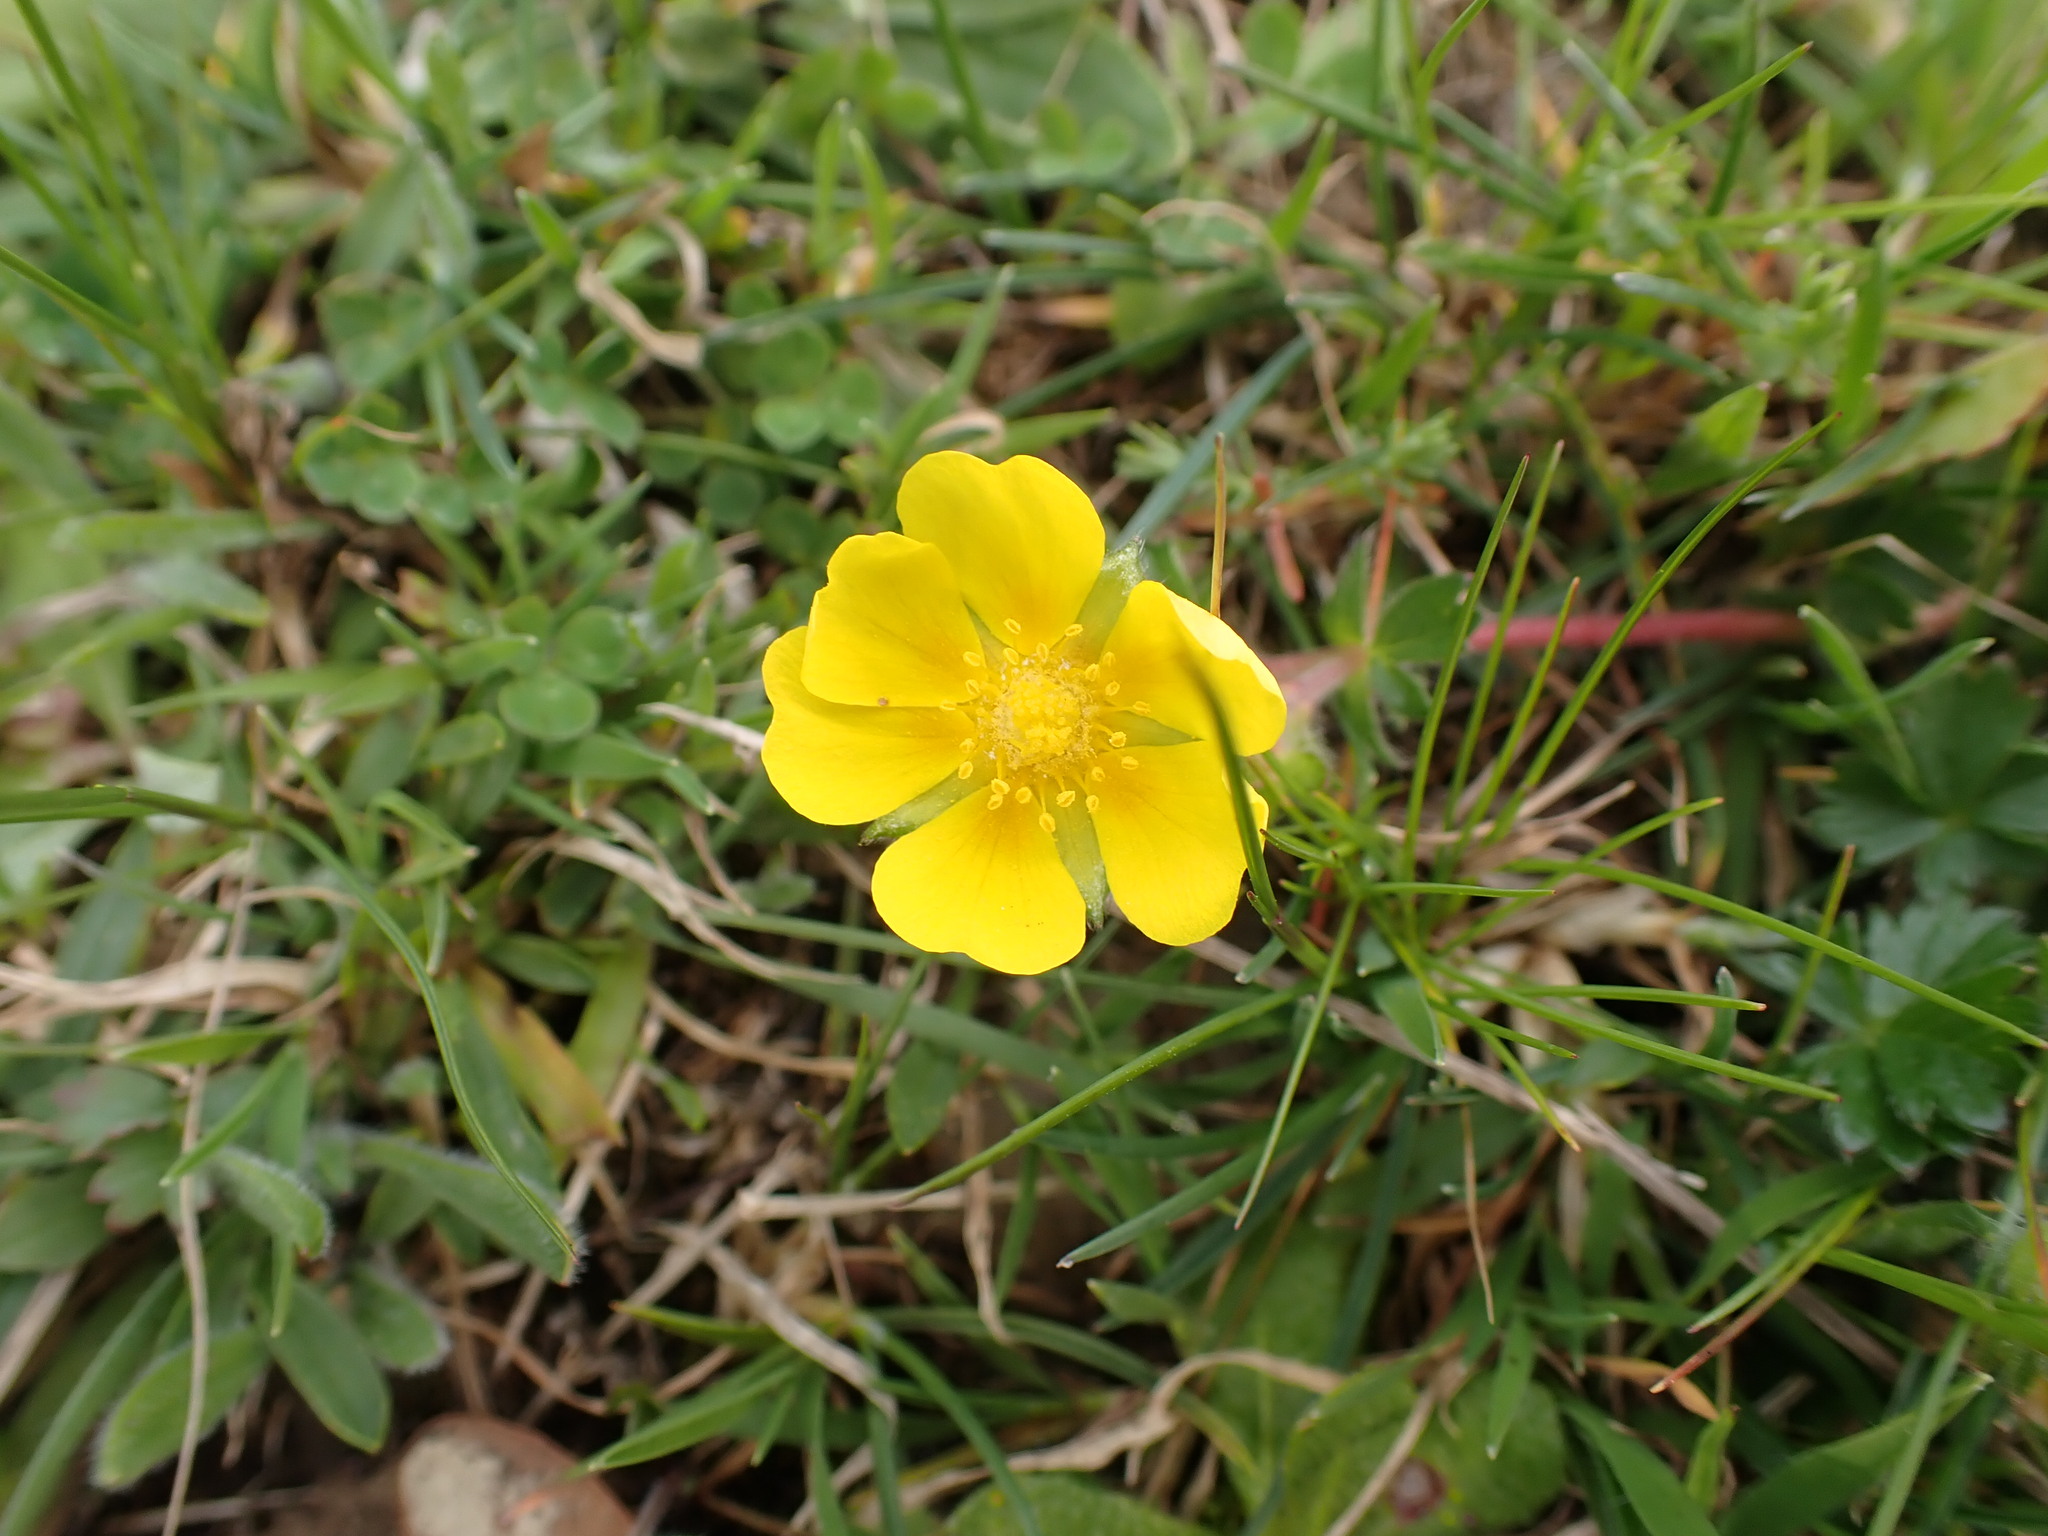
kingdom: Plantae
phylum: Tracheophyta
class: Magnoliopsida
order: Rosales
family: Rosaceae
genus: Potentilla
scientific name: Potentilla verna
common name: Spring cinquefoil
